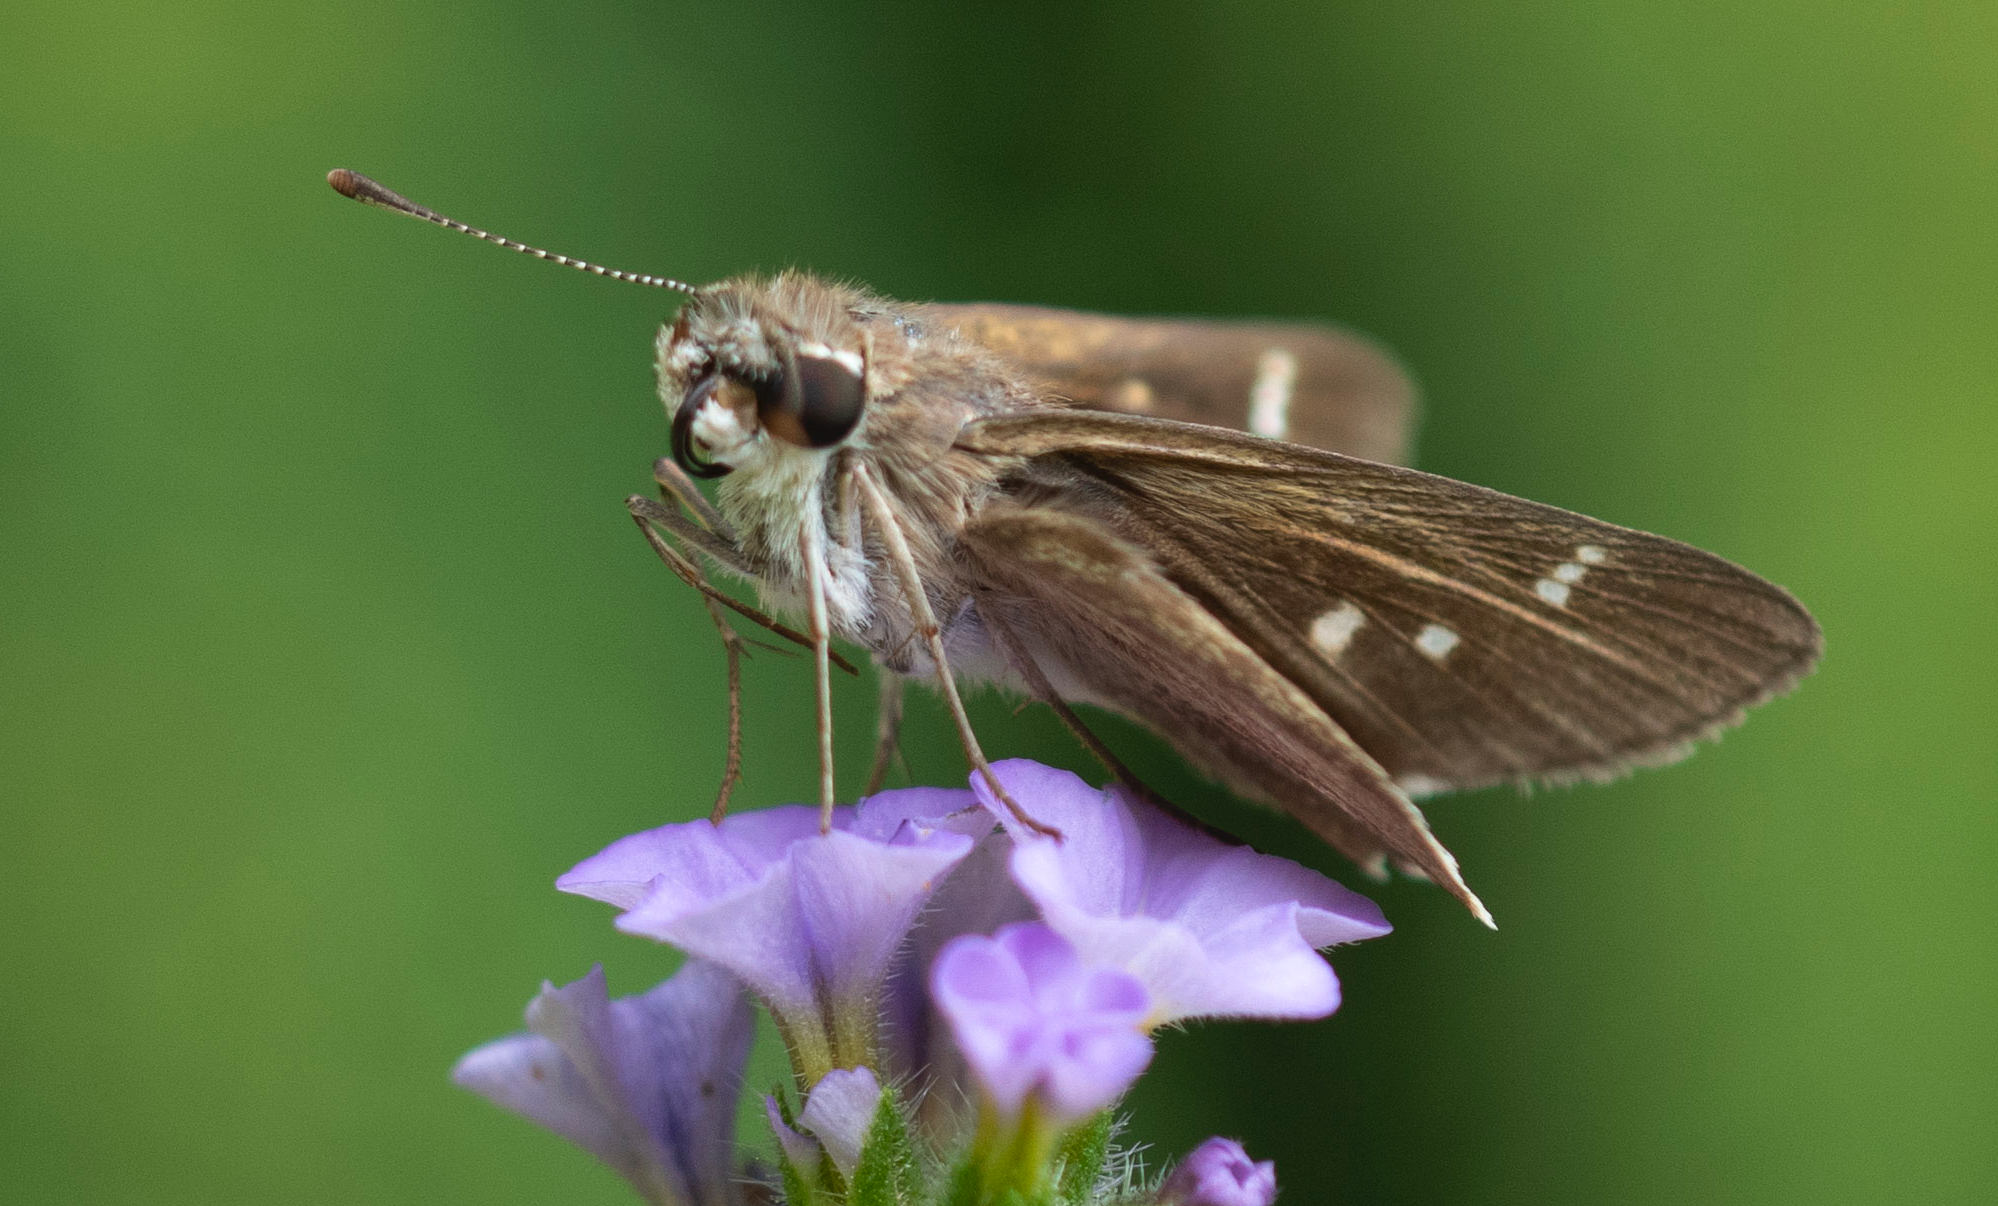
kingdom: Animalia
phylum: Arthropoda
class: Insecta
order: Lepidoptera
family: Hesperiidae
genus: Lerodea
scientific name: Lerodea eufala
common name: Eufala skipper
